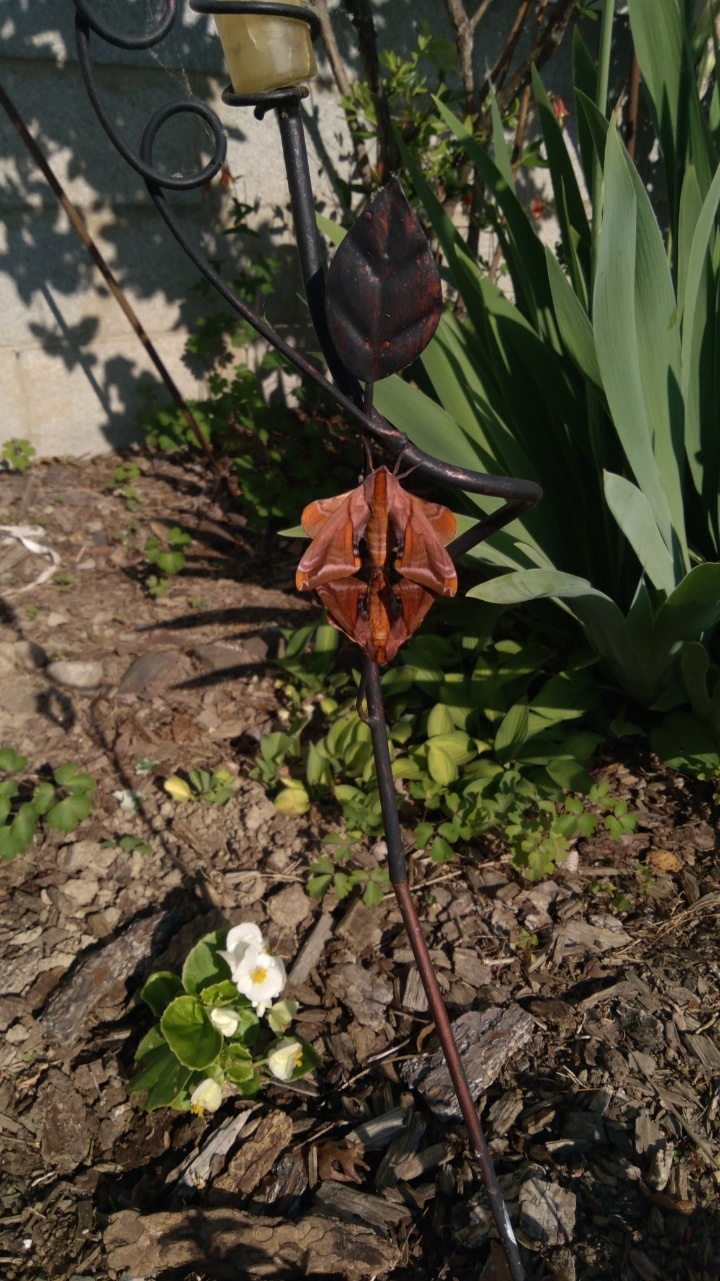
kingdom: Animalia
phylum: Arthropoda
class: Insecta
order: Lepidoptera
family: Sphingidae
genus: Paonias
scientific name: Paonias astylus
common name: Huckleberry sphinx
